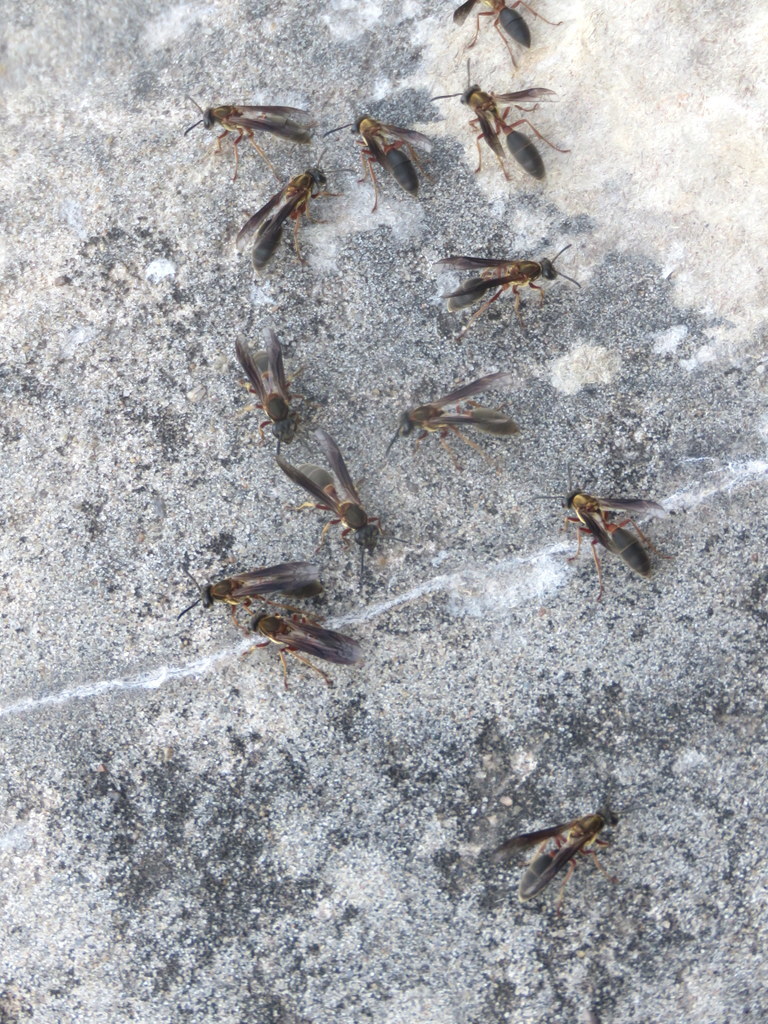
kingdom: Animalia
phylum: Arthropoda
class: Insecta
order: Hymenoptera
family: Eumenidae
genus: Polybia
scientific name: Polybia sericea
